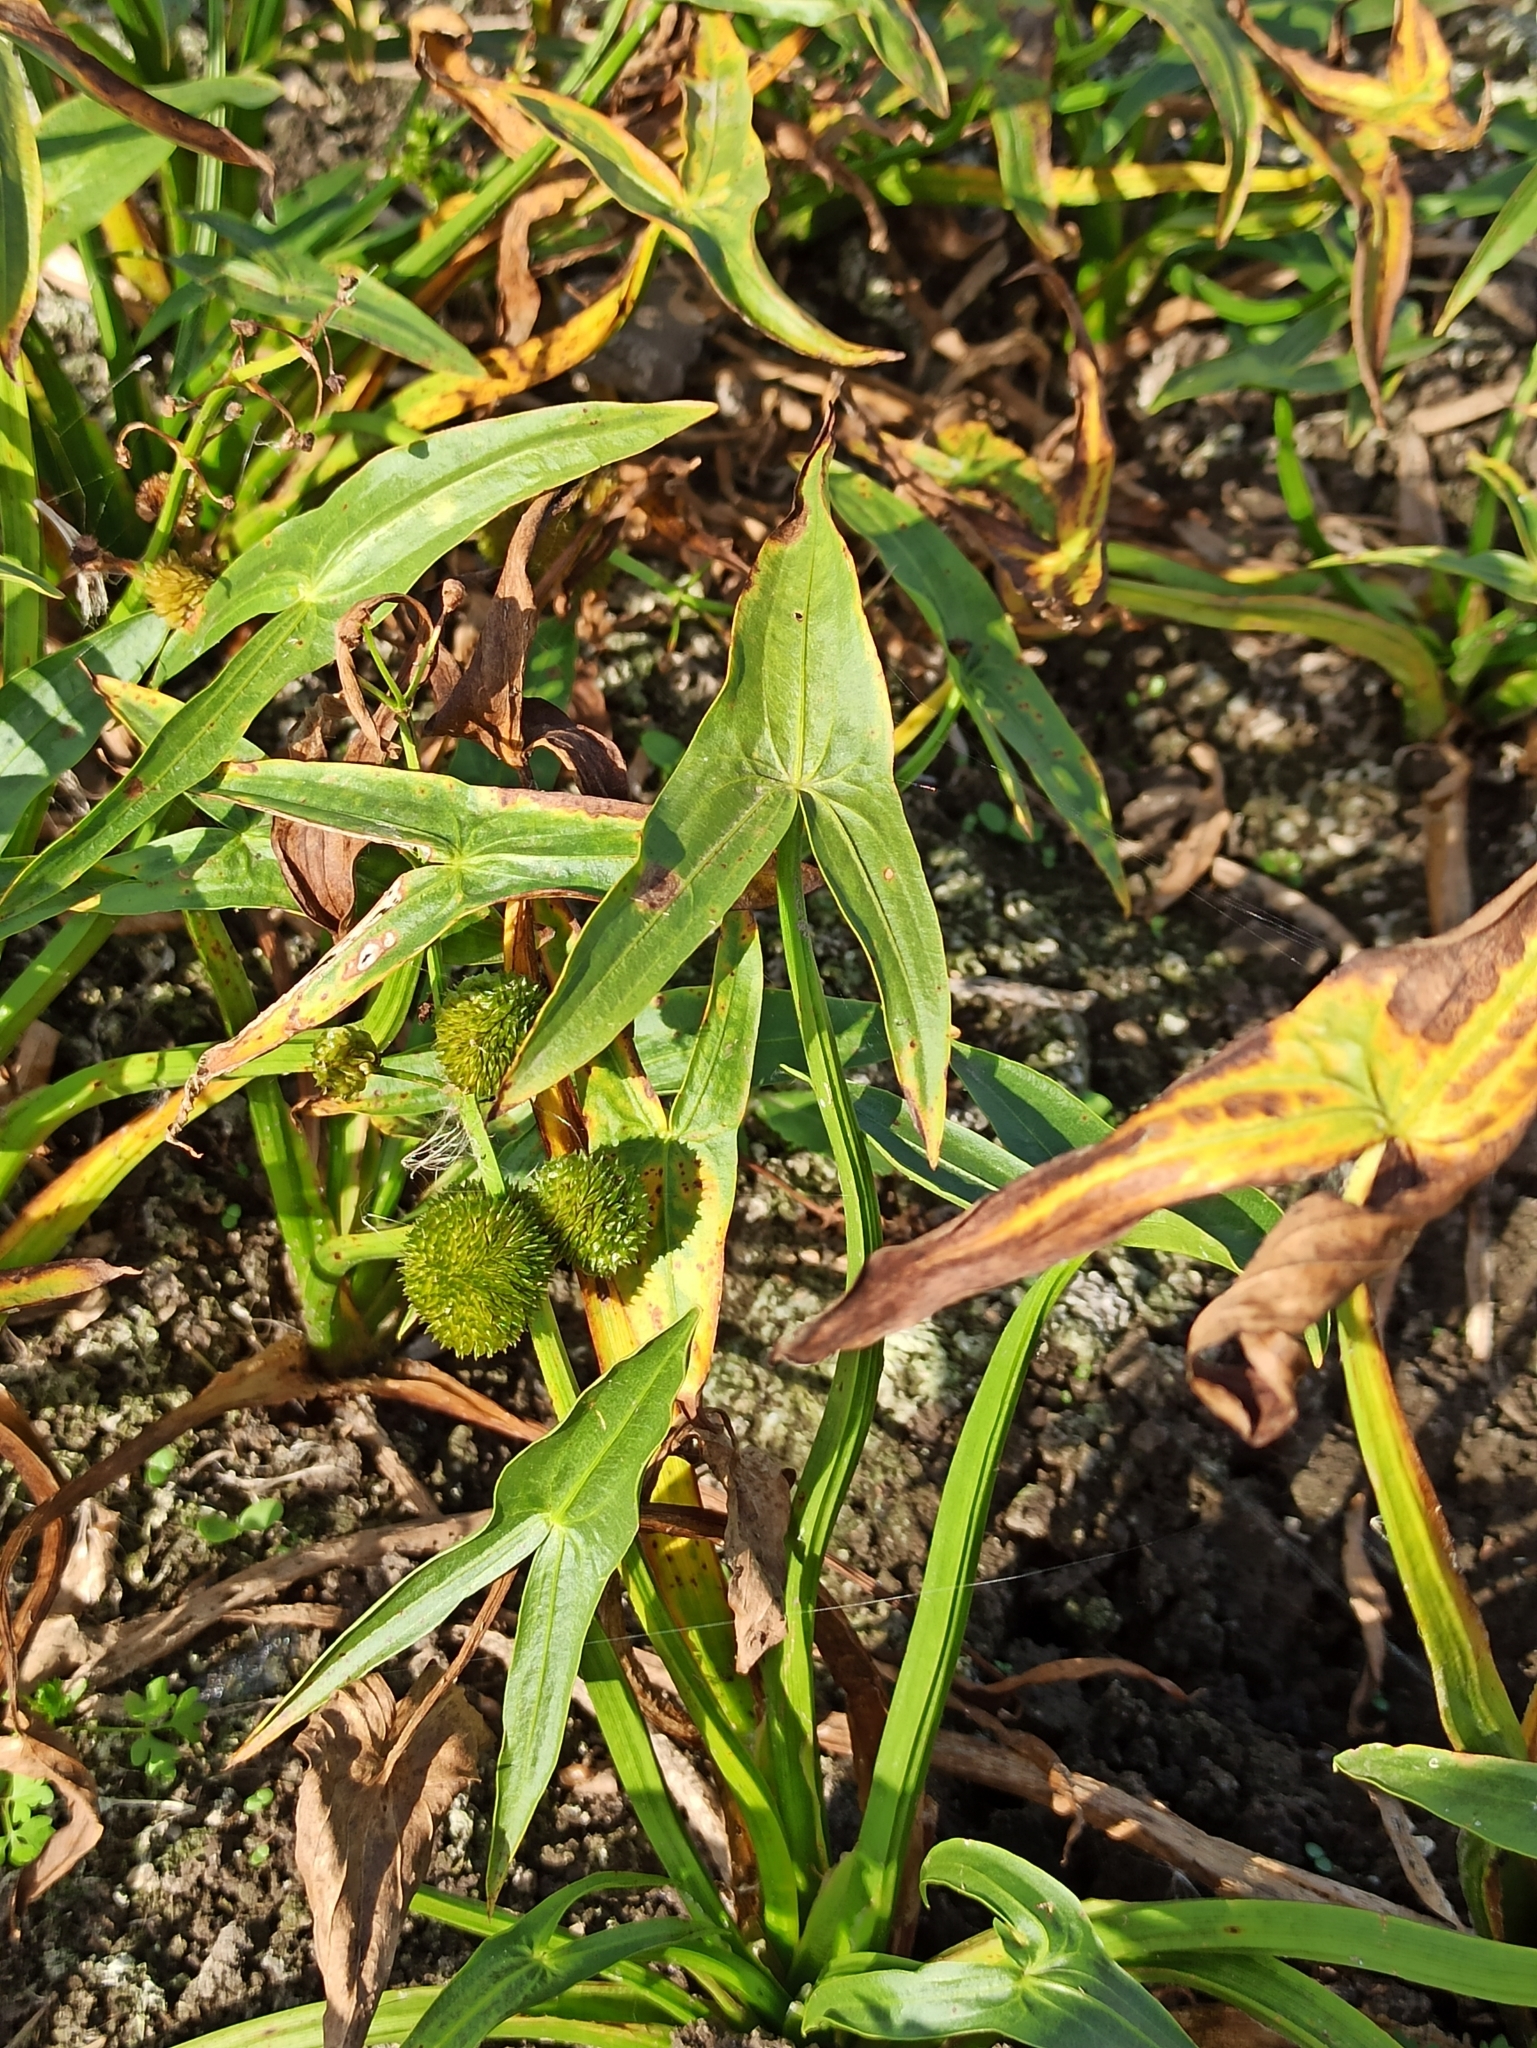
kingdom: Plantae
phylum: Tracheophyta
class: Liliopsida
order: Alismatales
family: Alismataceae
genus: Sagittaria
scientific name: Sagittaria sagittifolia
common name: Arrowhead
